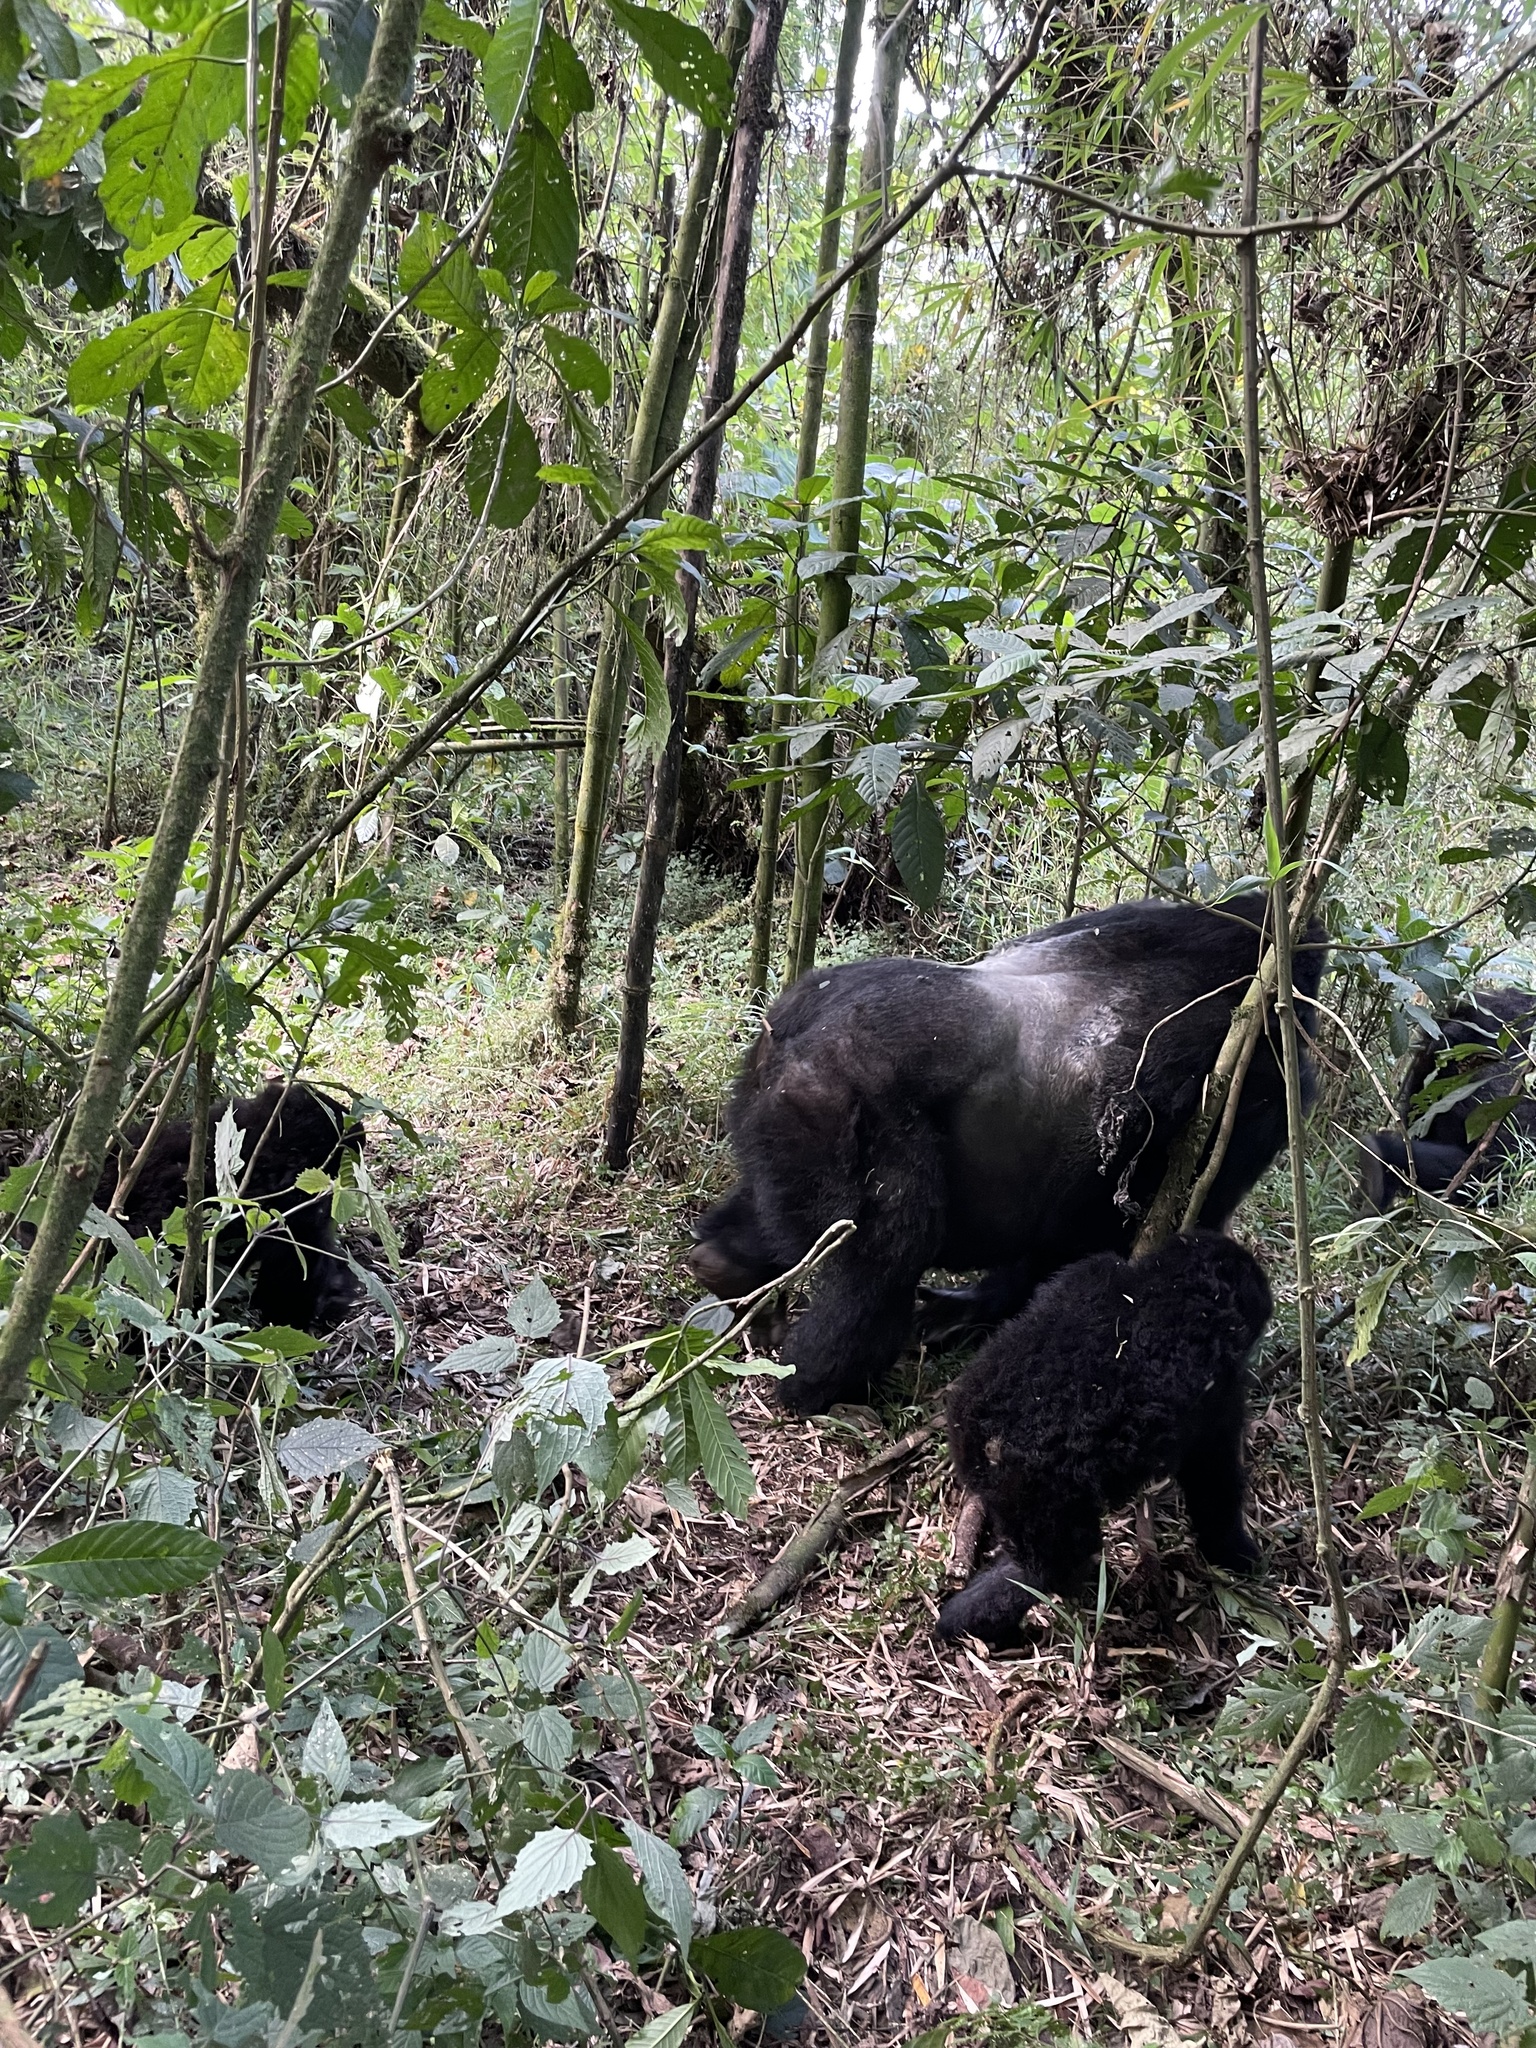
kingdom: Animalia
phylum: Chordata
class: Mammalia
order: Primates
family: Hominidae
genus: Gorilla
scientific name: Gorilla beringei
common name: Eastern gorilla
